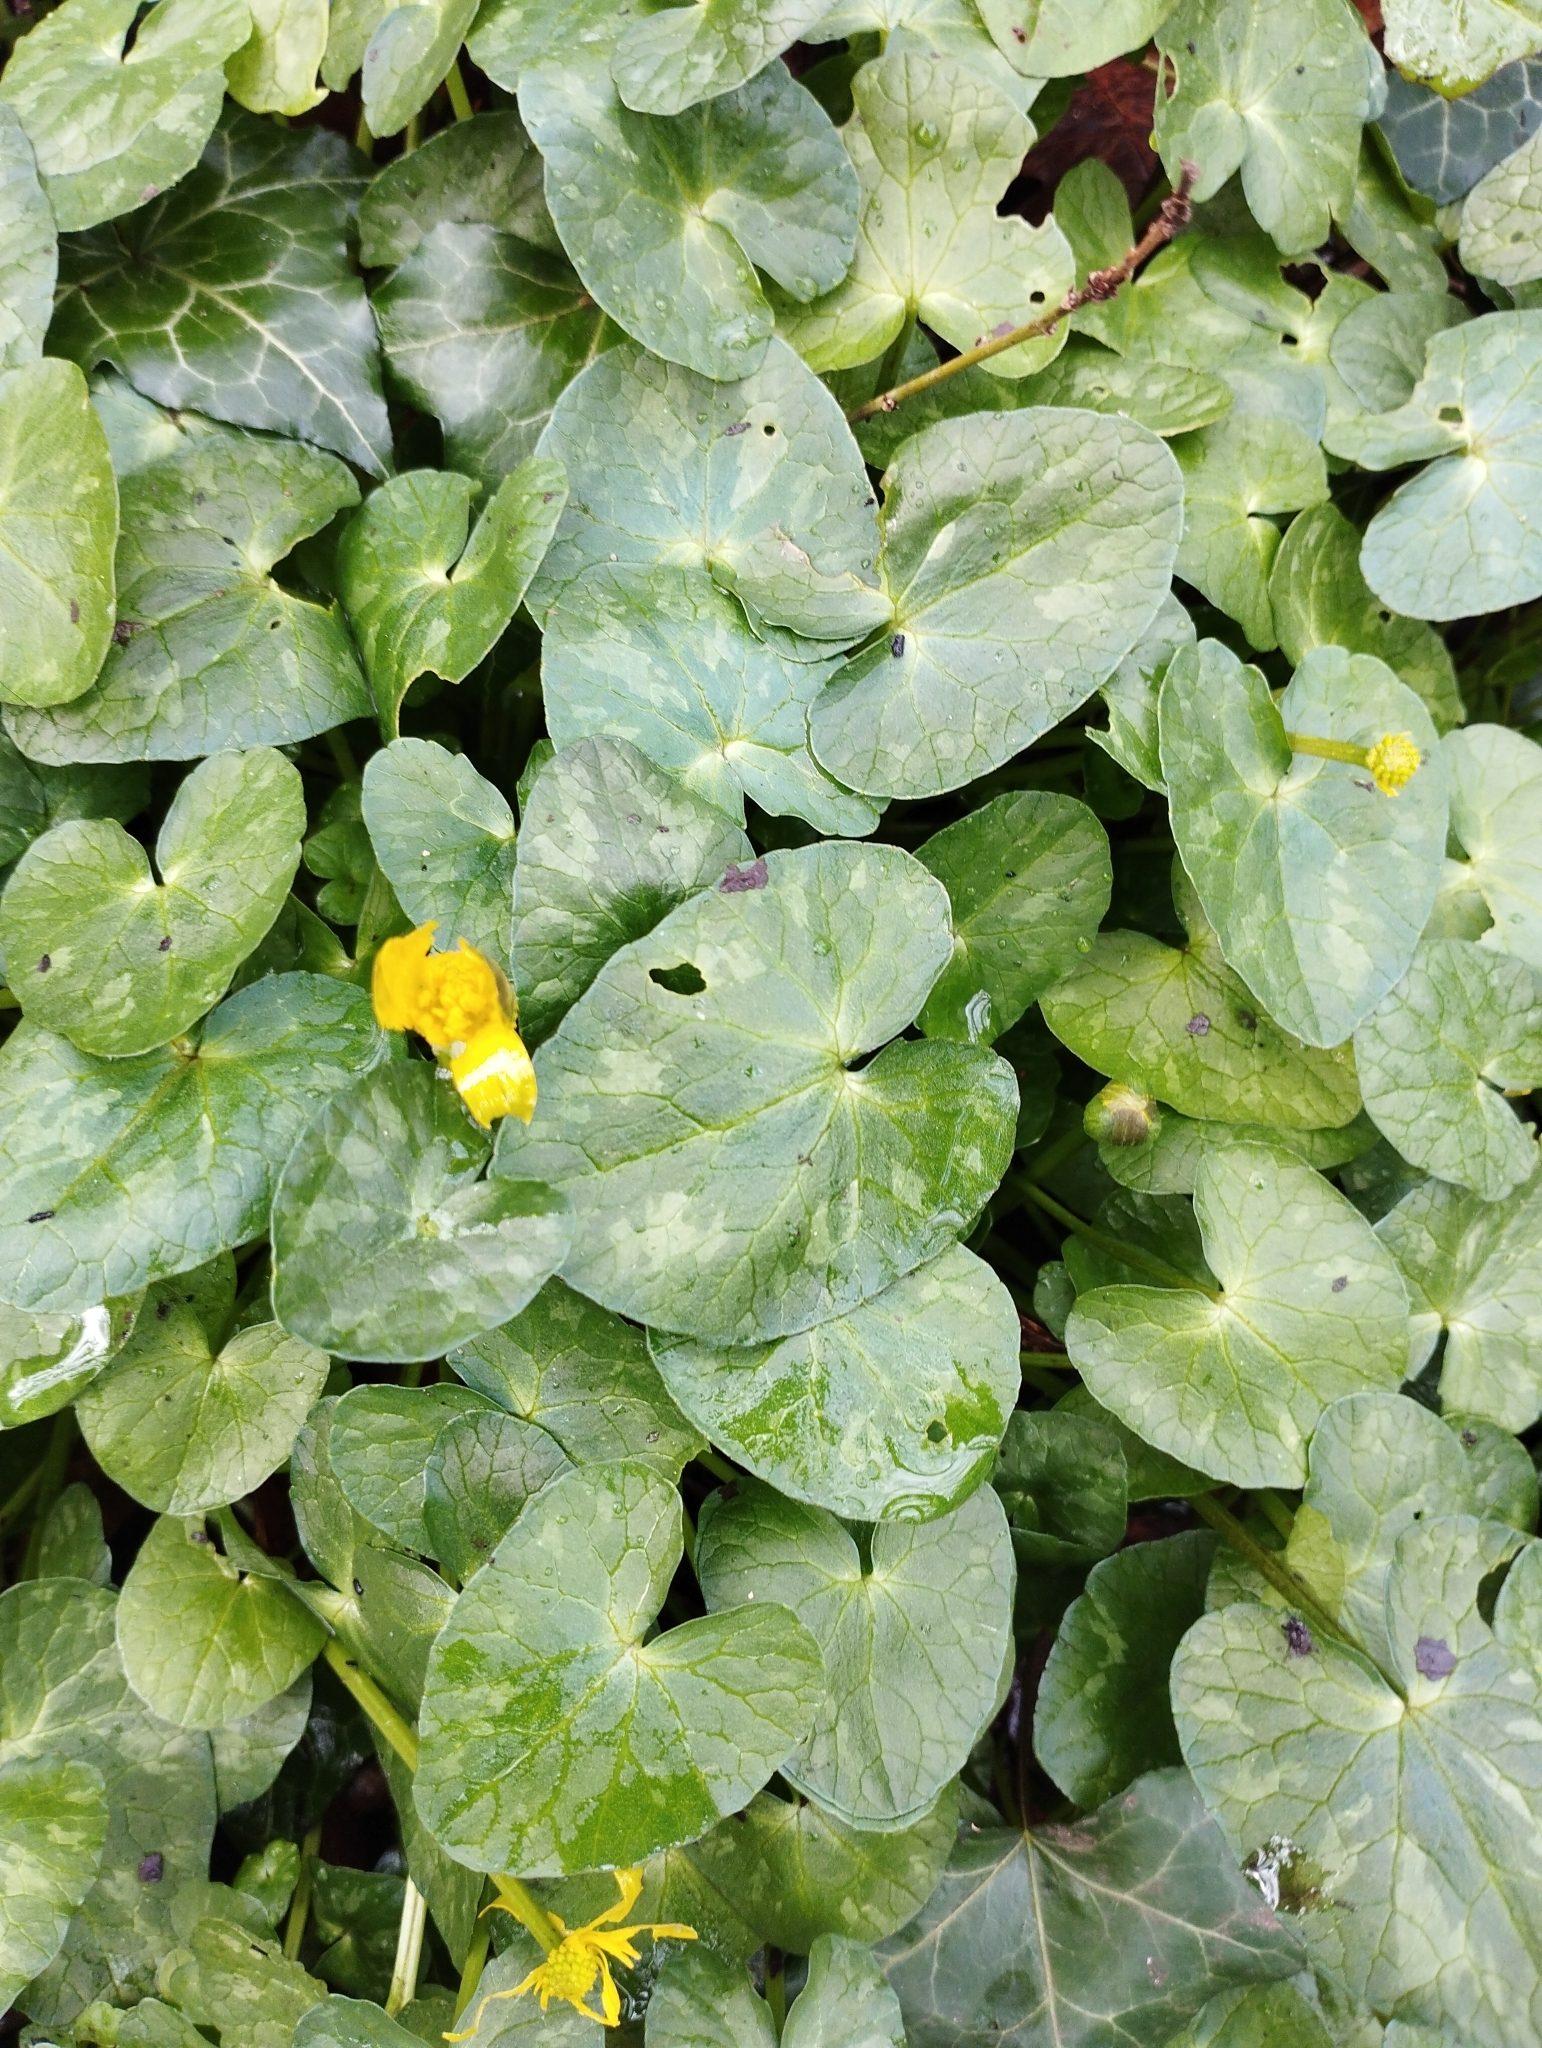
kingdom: Plantae
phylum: Tracheophyta
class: Magnoliopsida
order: Ranunculales
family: Ranunculaceae
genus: Ficaria
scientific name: Ficaria verna
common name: Lesser celandine
